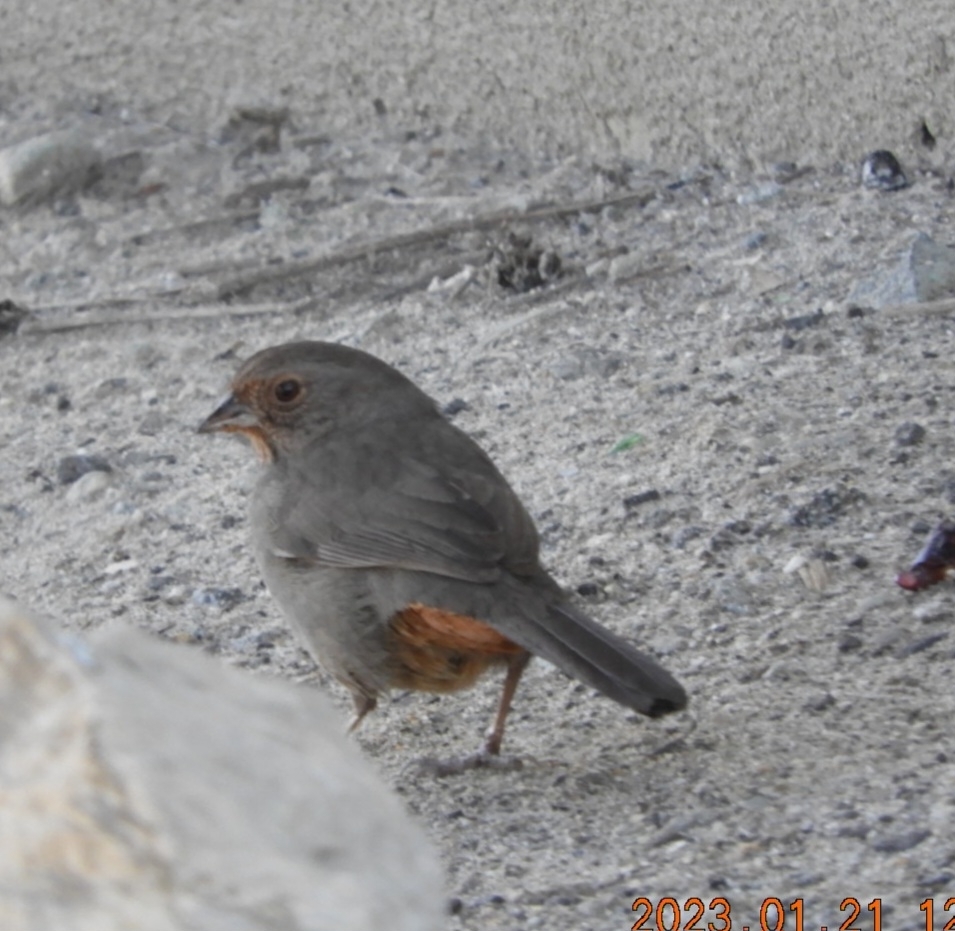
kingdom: Animalia
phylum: Chordata
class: Aves
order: Passeriformes
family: Passerellidae
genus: Melozone
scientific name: Melozone crissalis
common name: California towhee
